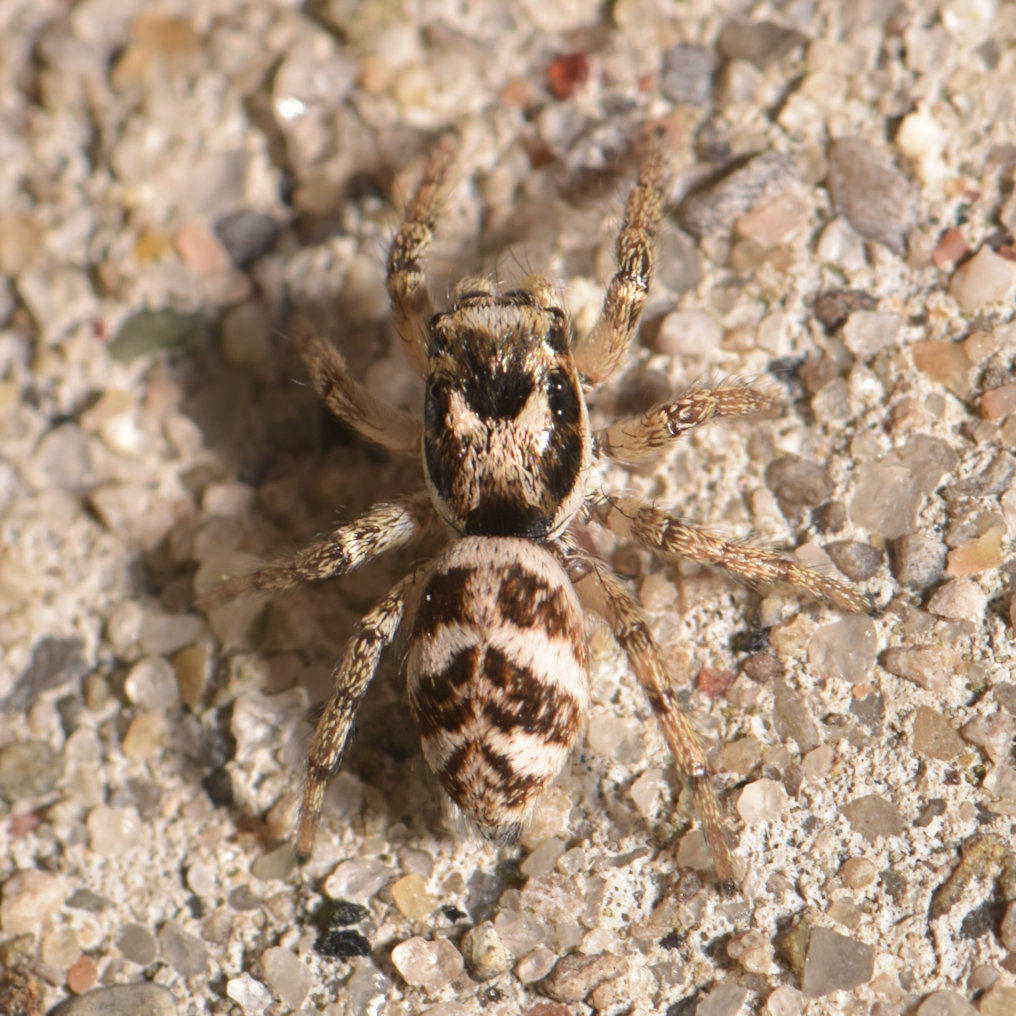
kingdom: Animalia
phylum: Arthropoda
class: Arachnida
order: Araneae
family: Salticidae
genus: Salticus
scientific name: Salticus scenicus
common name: Zebra jumper
